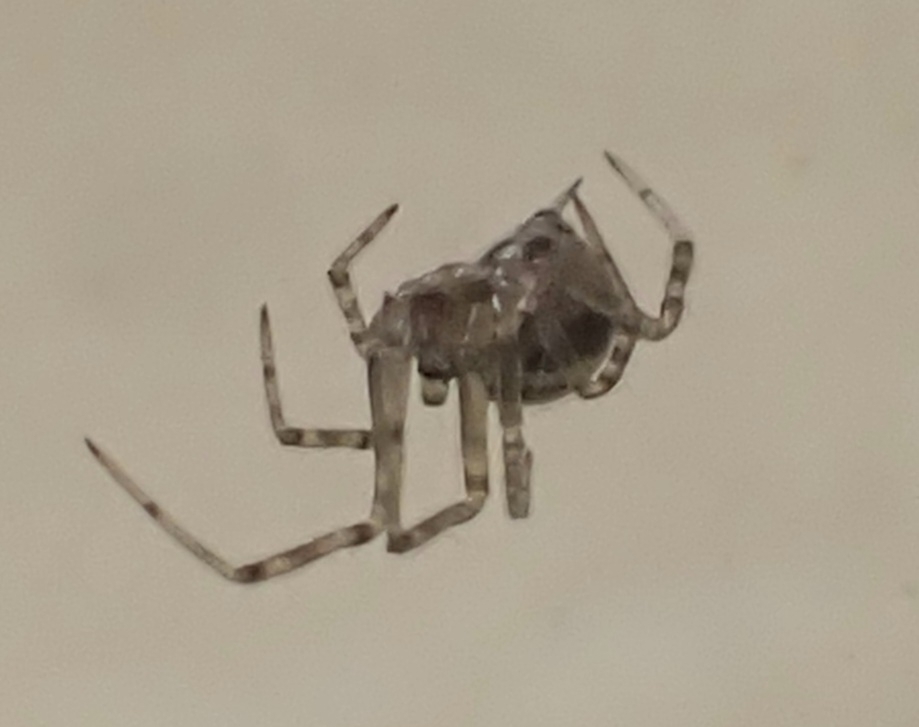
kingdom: Animalia
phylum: Arthropoda
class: Arachnida
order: Araneae
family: Theridiidae
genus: Steatoda
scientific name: Steatoda castanea
